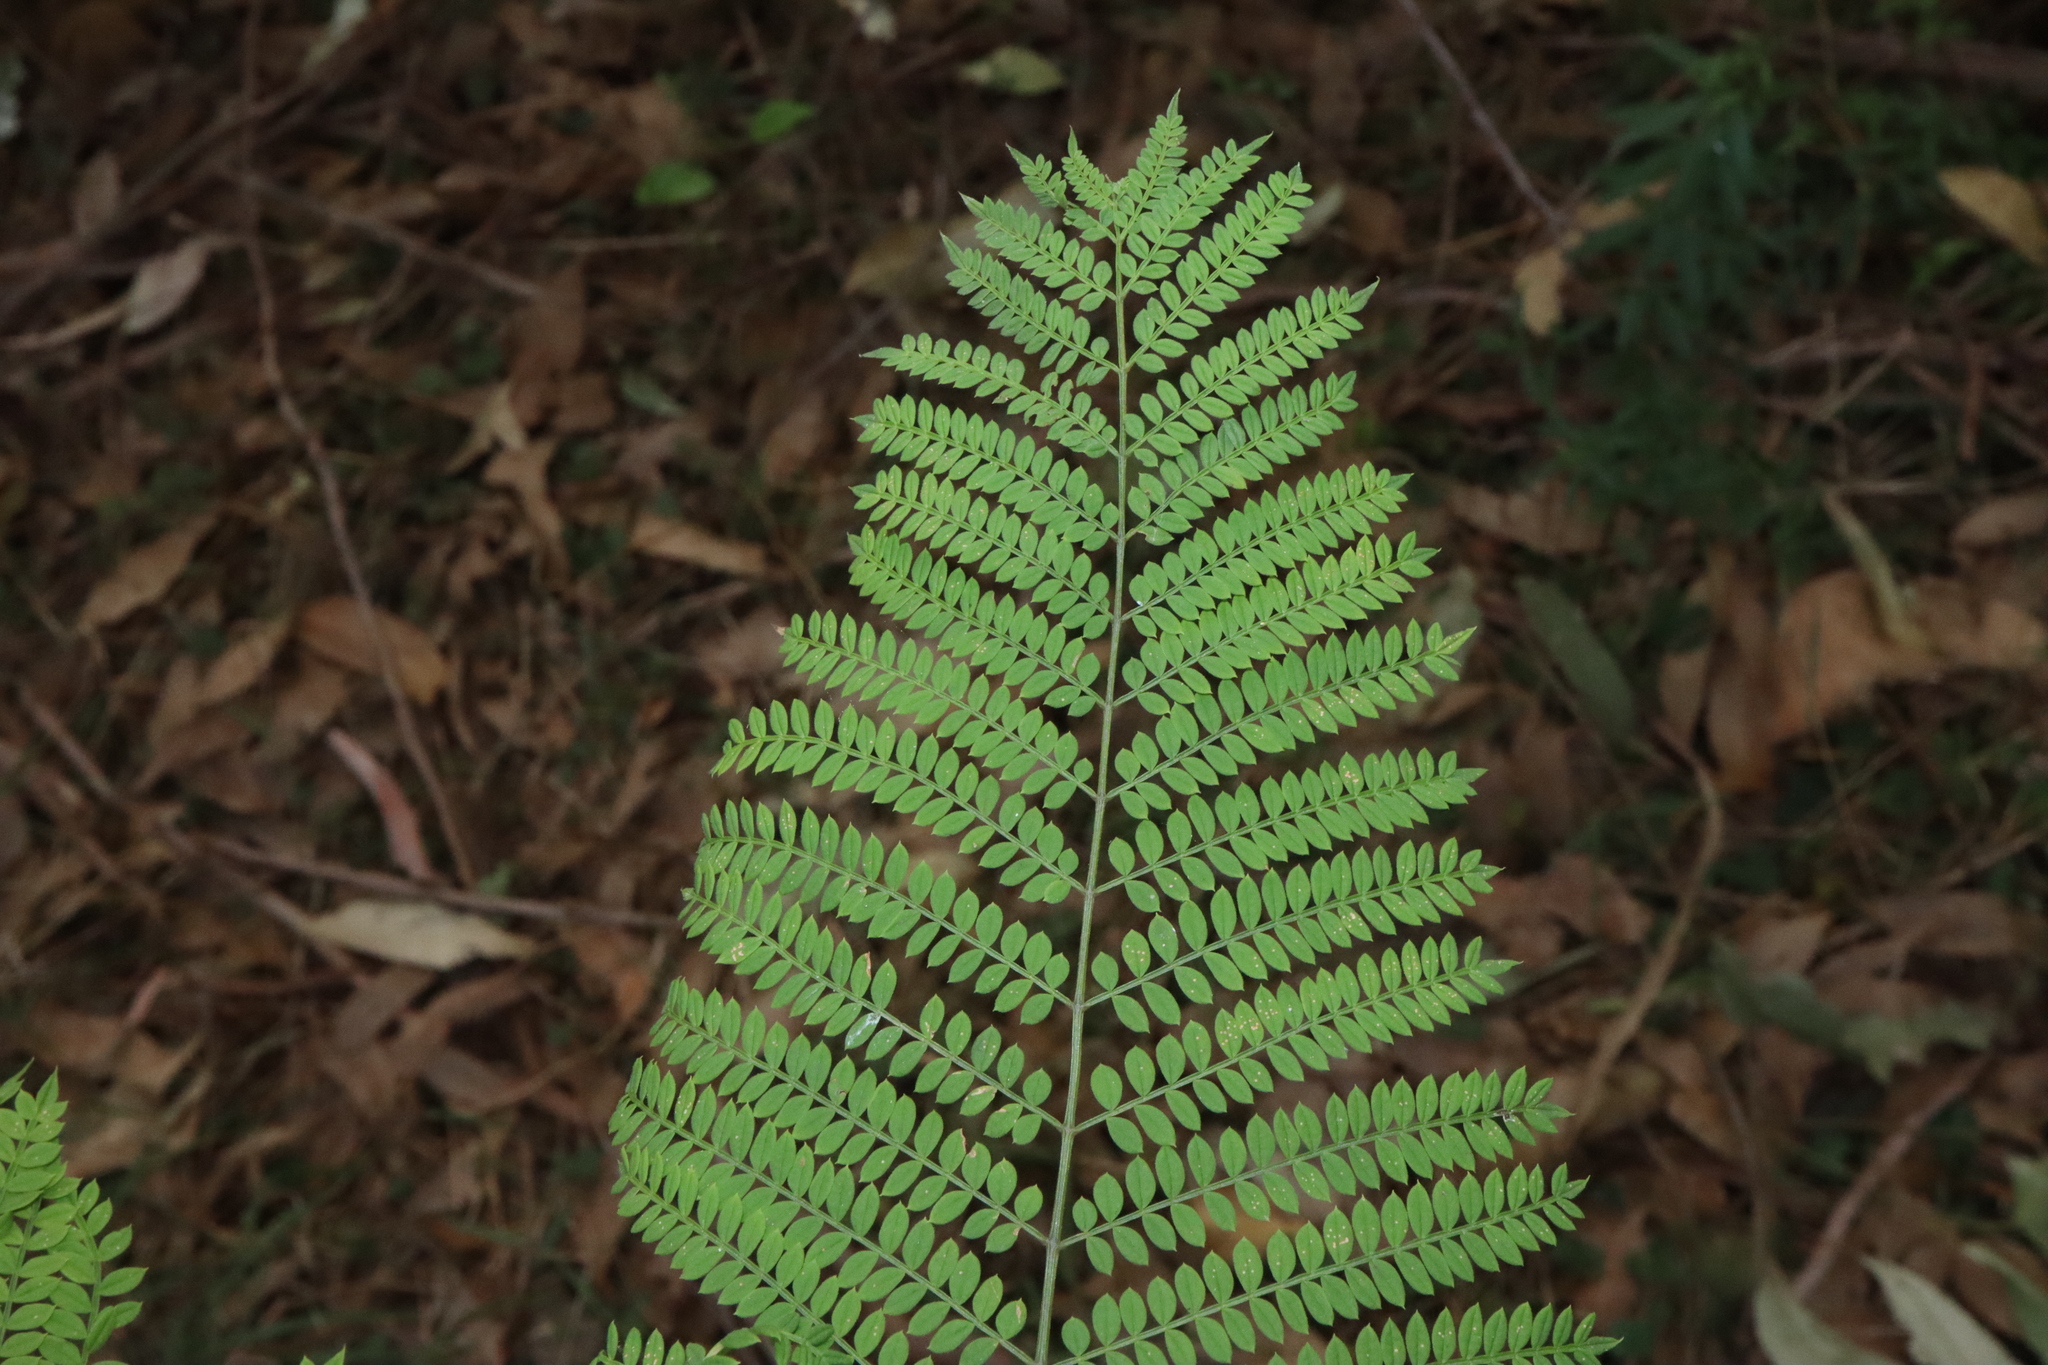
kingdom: Plantae
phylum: Tracheophyta
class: Magnoliopsida
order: Lamiales
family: Bignoniaceae
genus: Jacaranda
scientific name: Jacaranda mimosifolia
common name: Black poui
